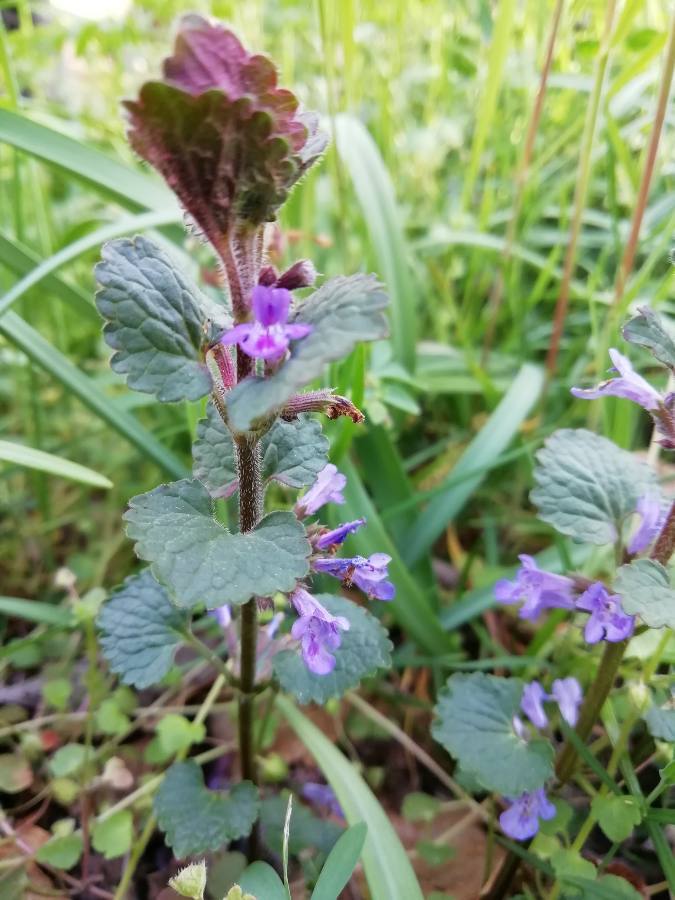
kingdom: Plantae
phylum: Tracheophyta
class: Magnoliopsida
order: Lamiales
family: Lamiaceae
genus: Glechoma
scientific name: Glechoma hederacea
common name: Ground ivy
